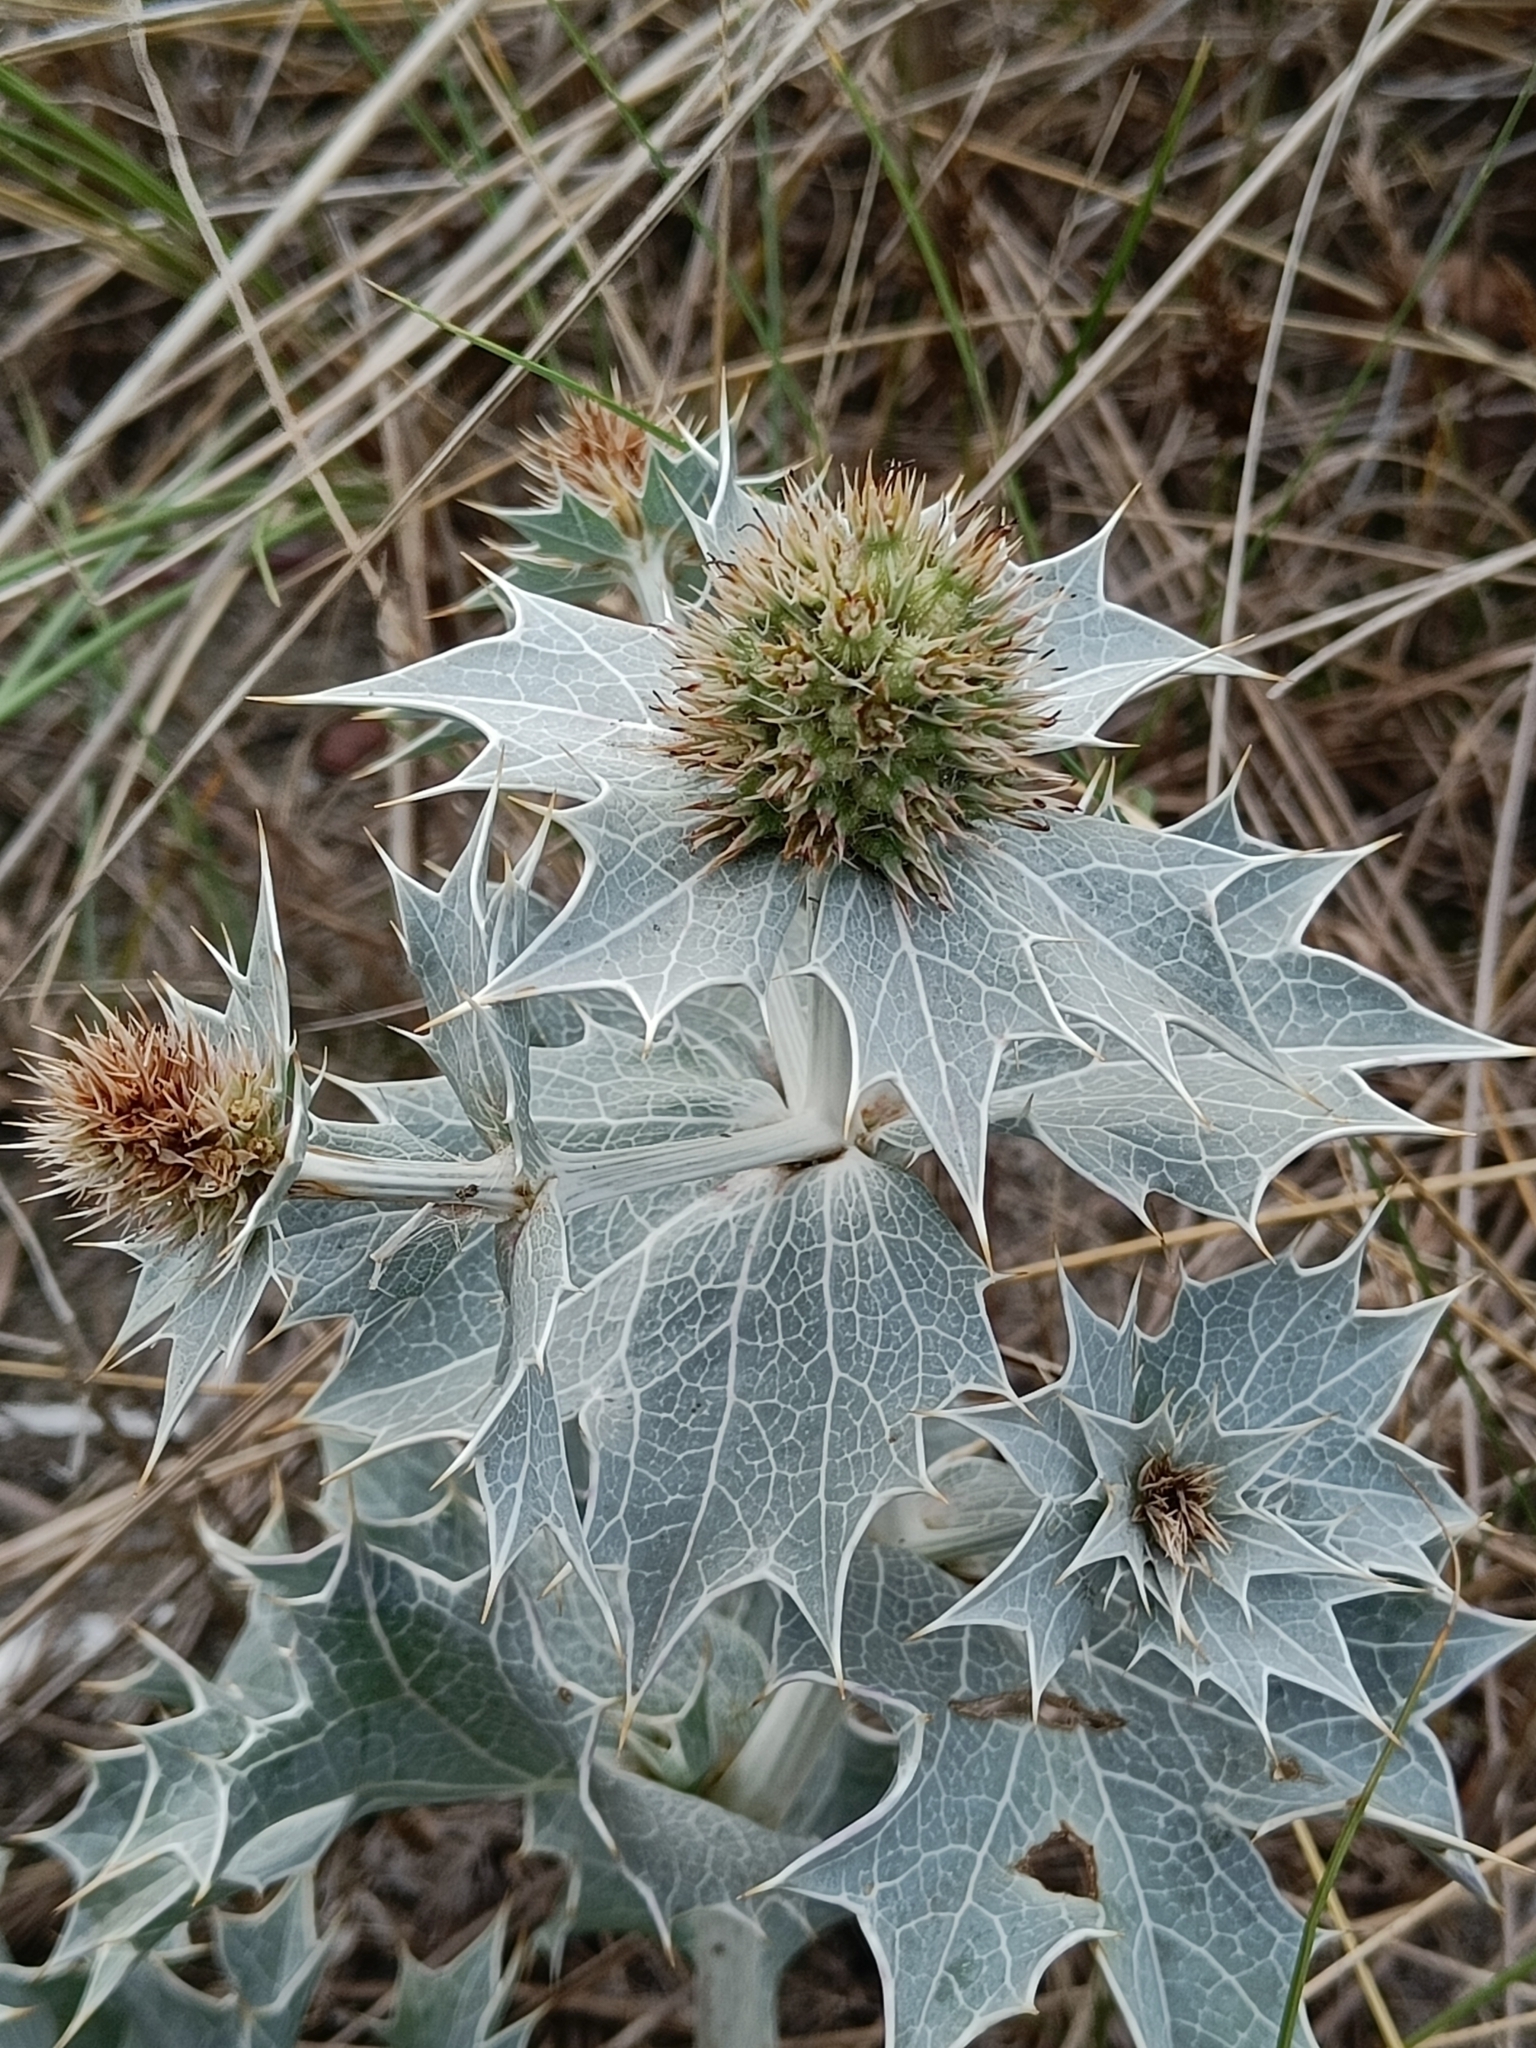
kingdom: Plantae
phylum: Tracheophyta
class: Magnoliopsida
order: Apiales
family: Apiaceae
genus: Eryngium
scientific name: Eryngium maritimum
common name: Sea-holly
